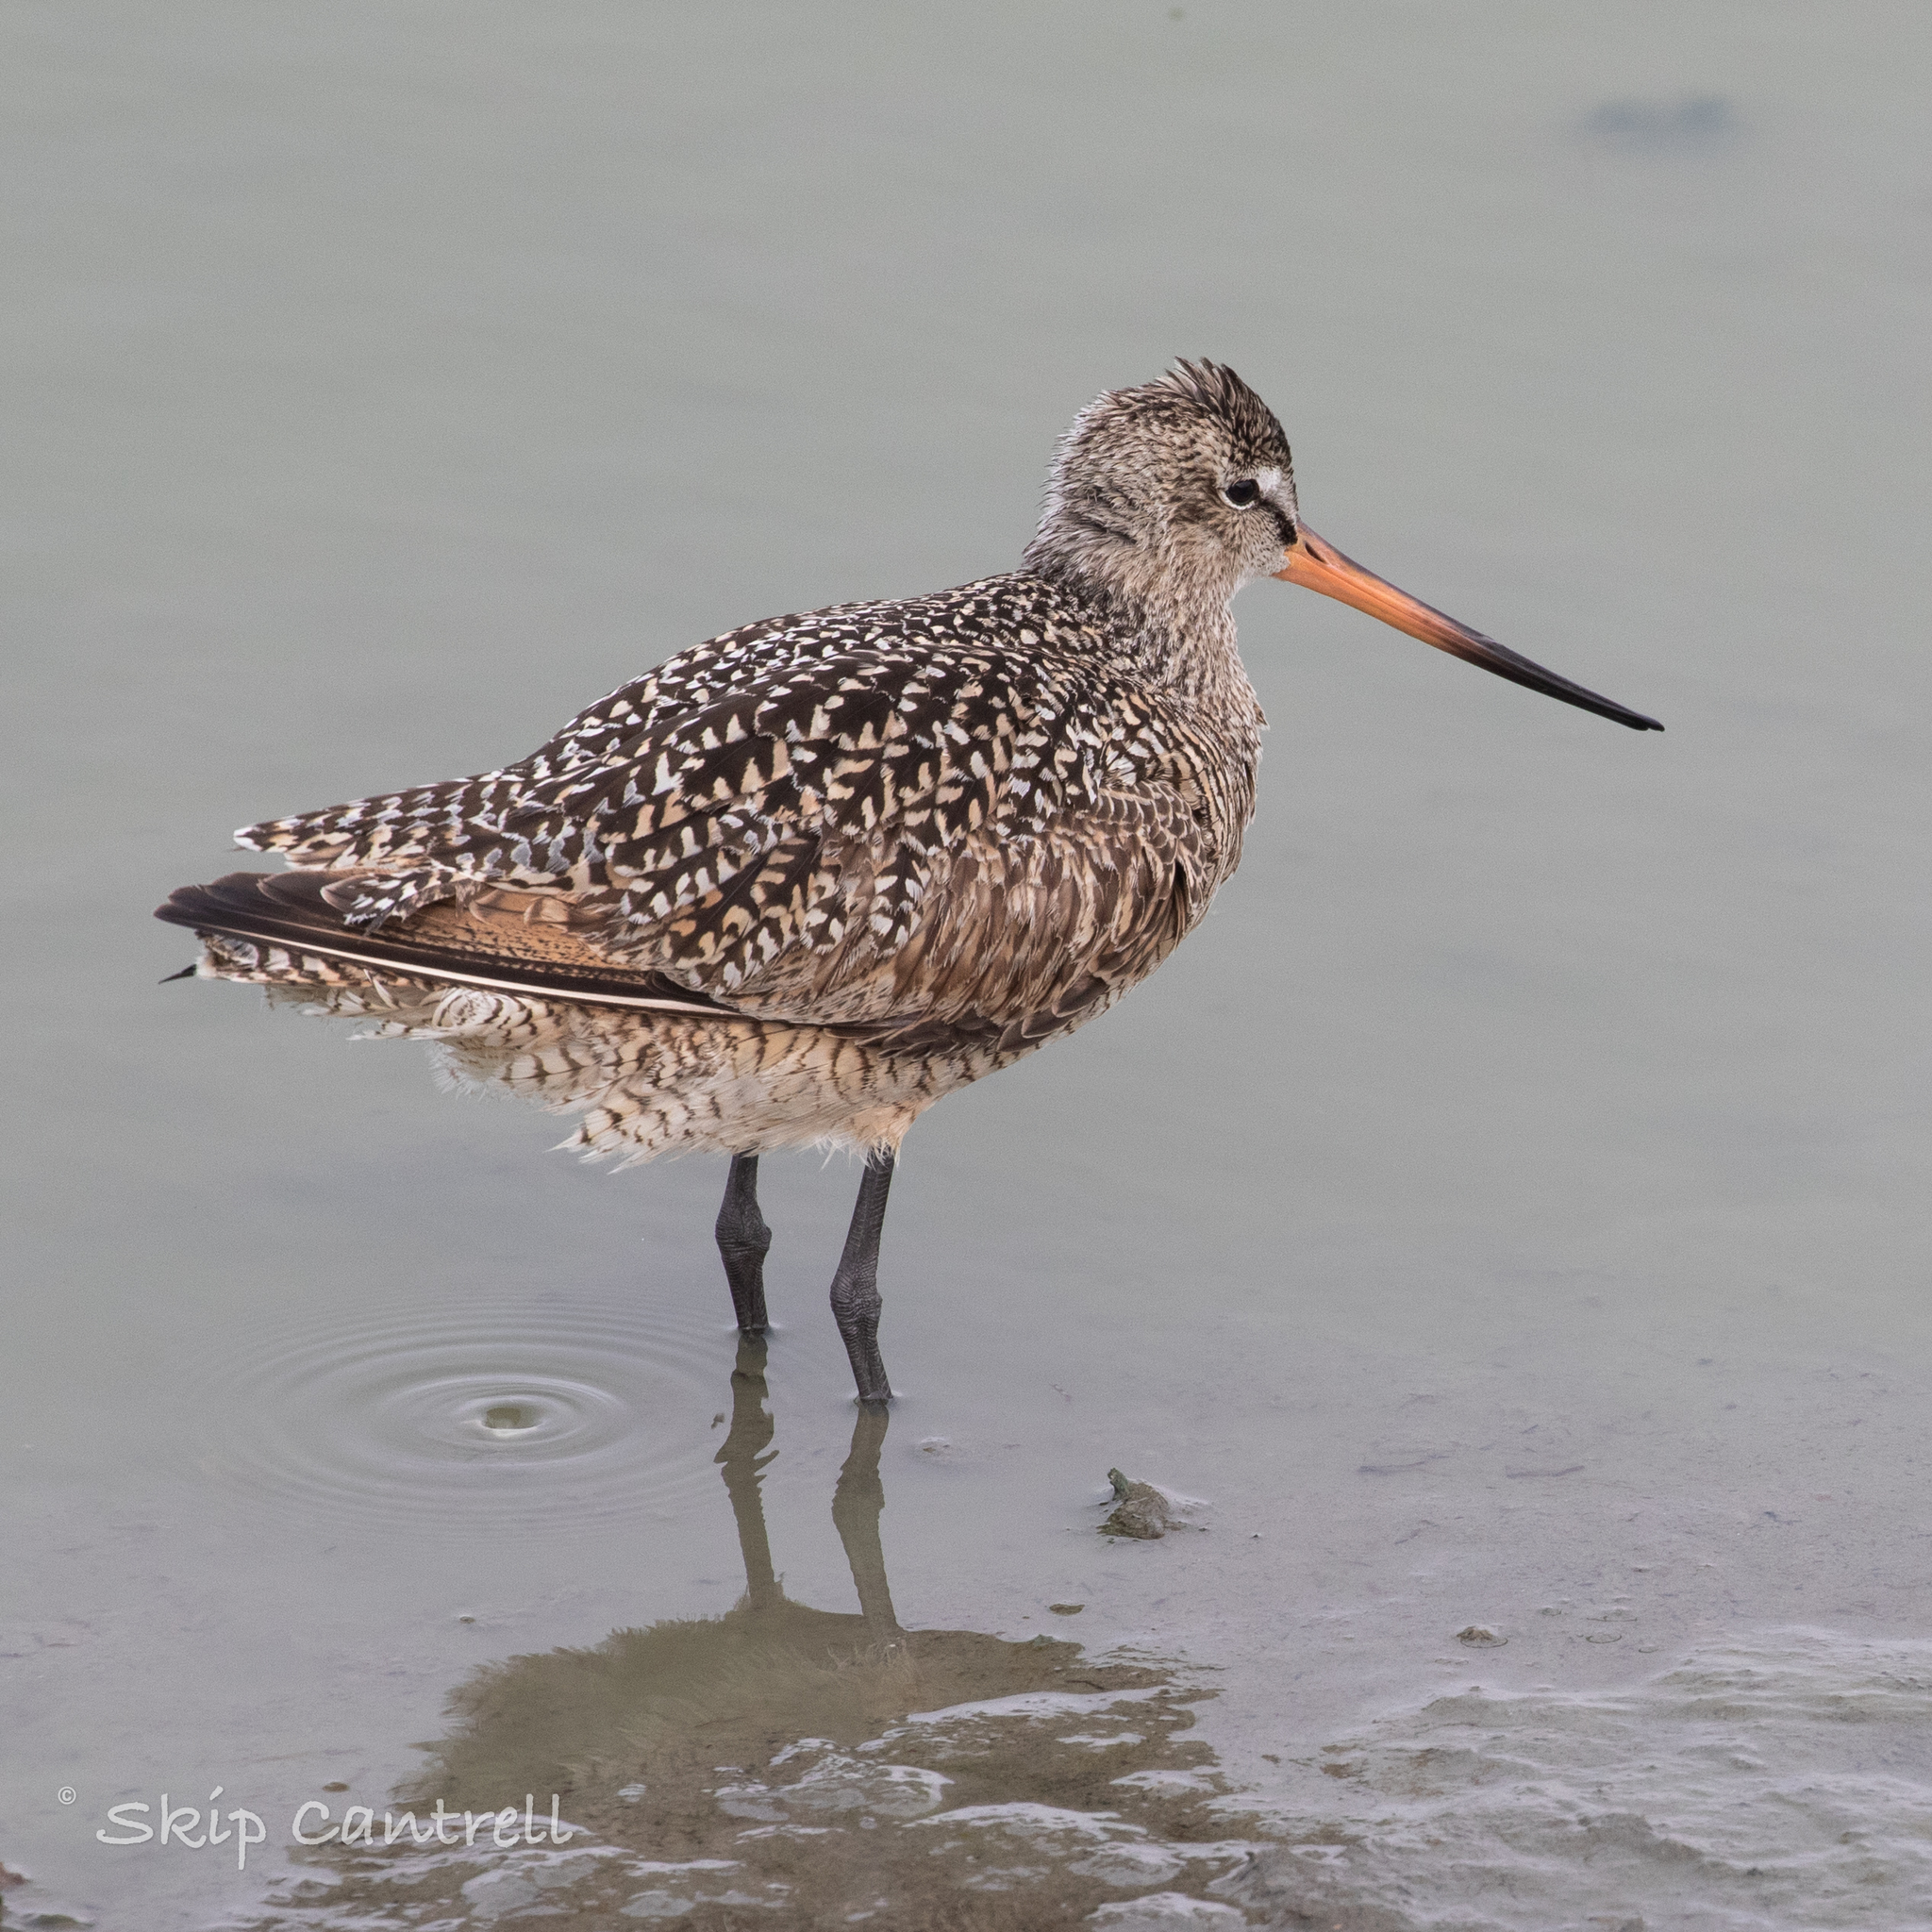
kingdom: Animalia
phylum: Chordata
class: Aves
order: Charadriiformes
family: Scolopacidae
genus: Limosa
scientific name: Limosa fedoa
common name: Marbled godwit
